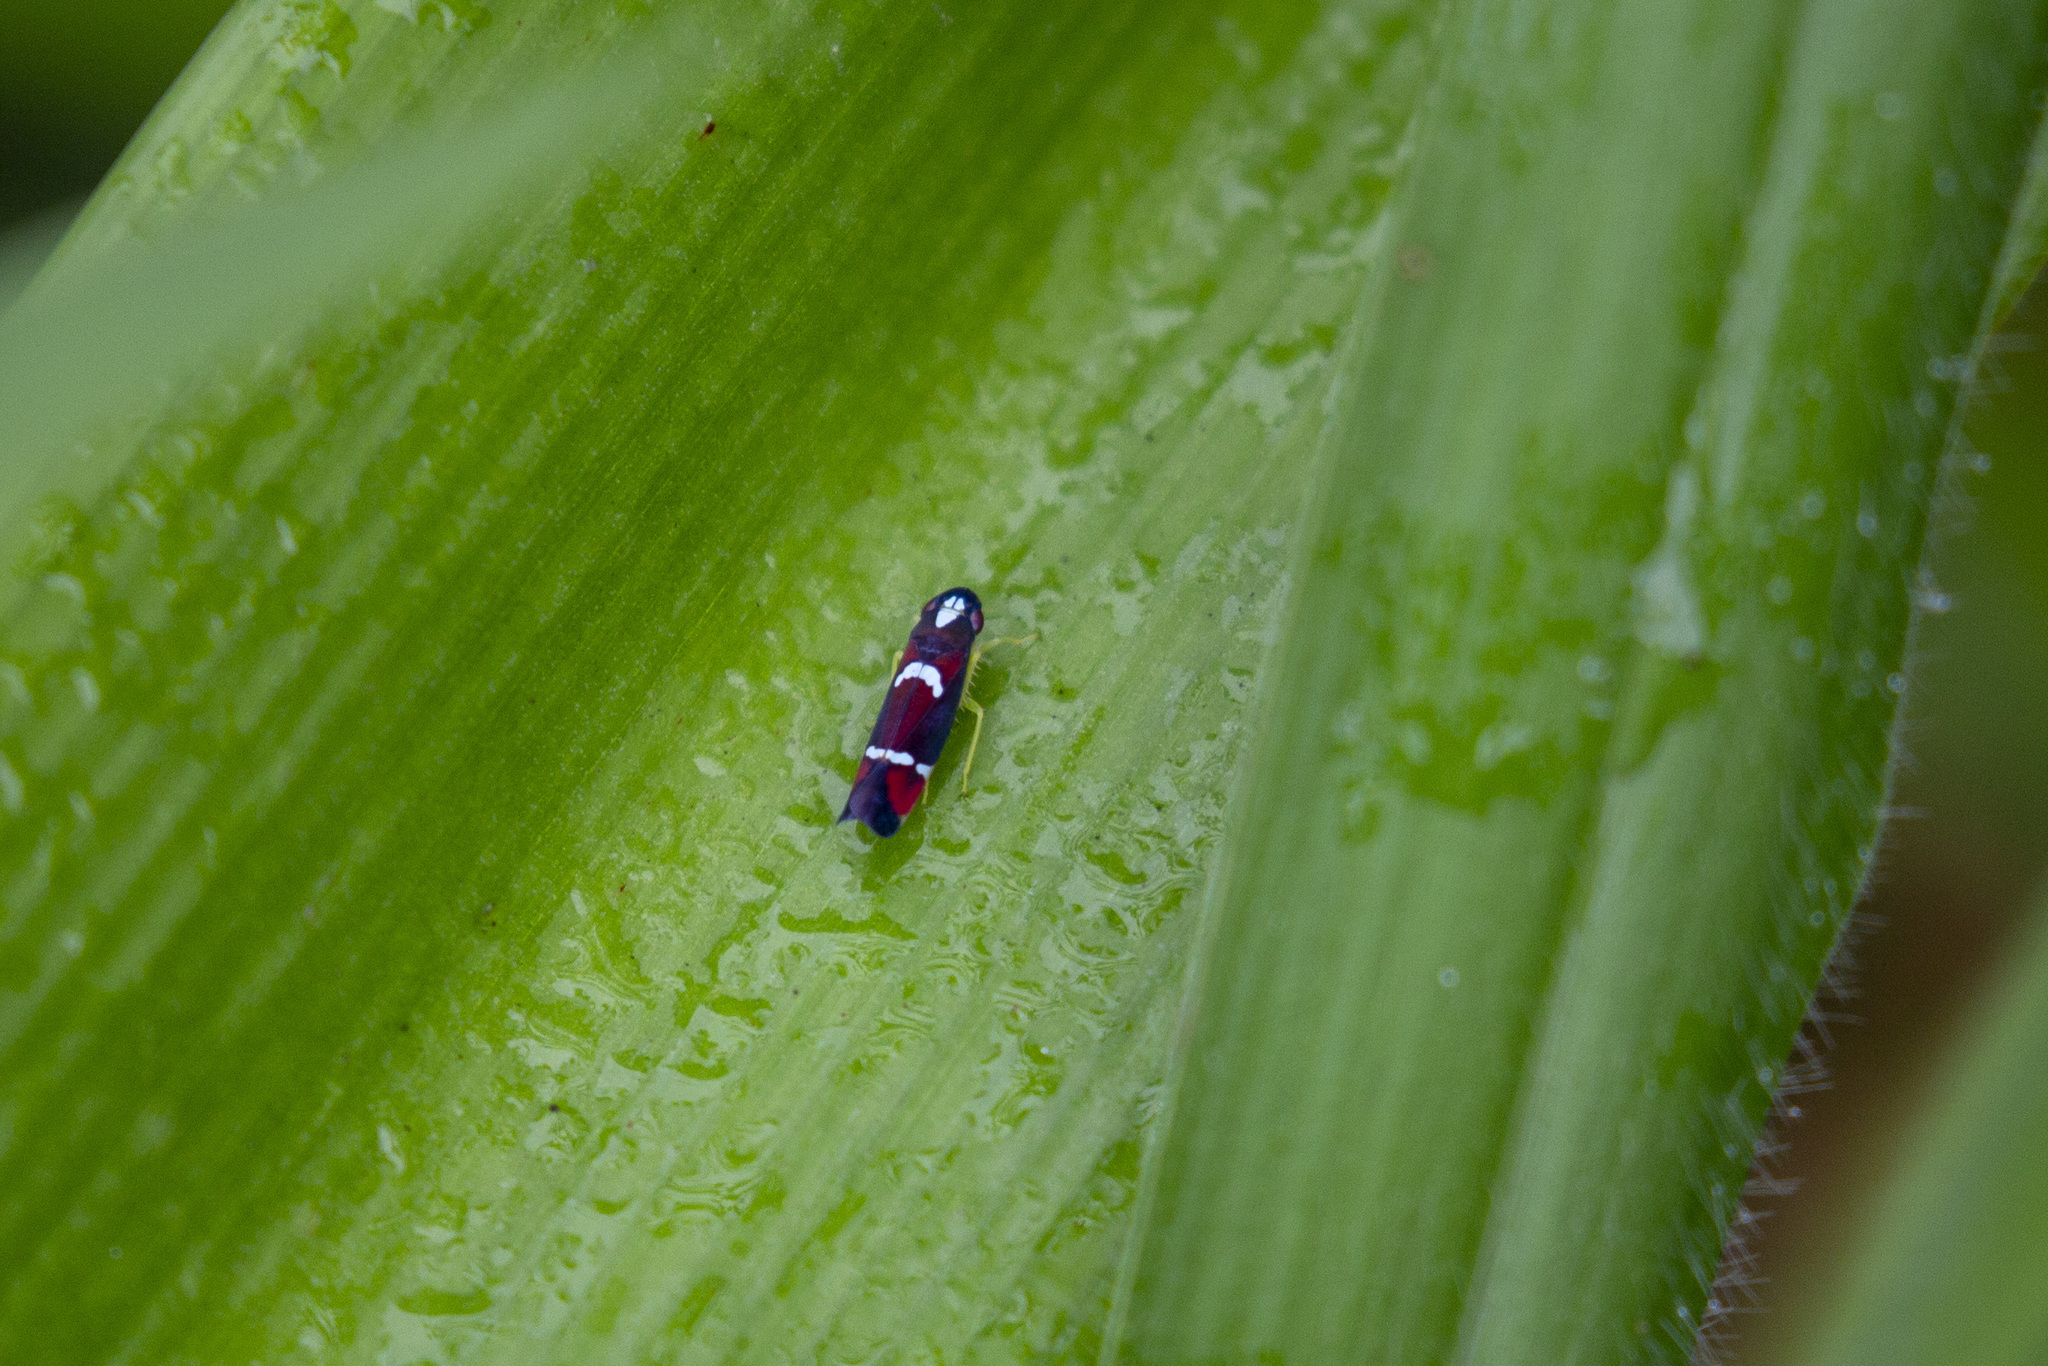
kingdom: Animalia
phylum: Arthropoda
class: Insecta
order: Hemiptera
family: Cicadellidae
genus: Erythrogonia
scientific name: Erythrogonia velox
